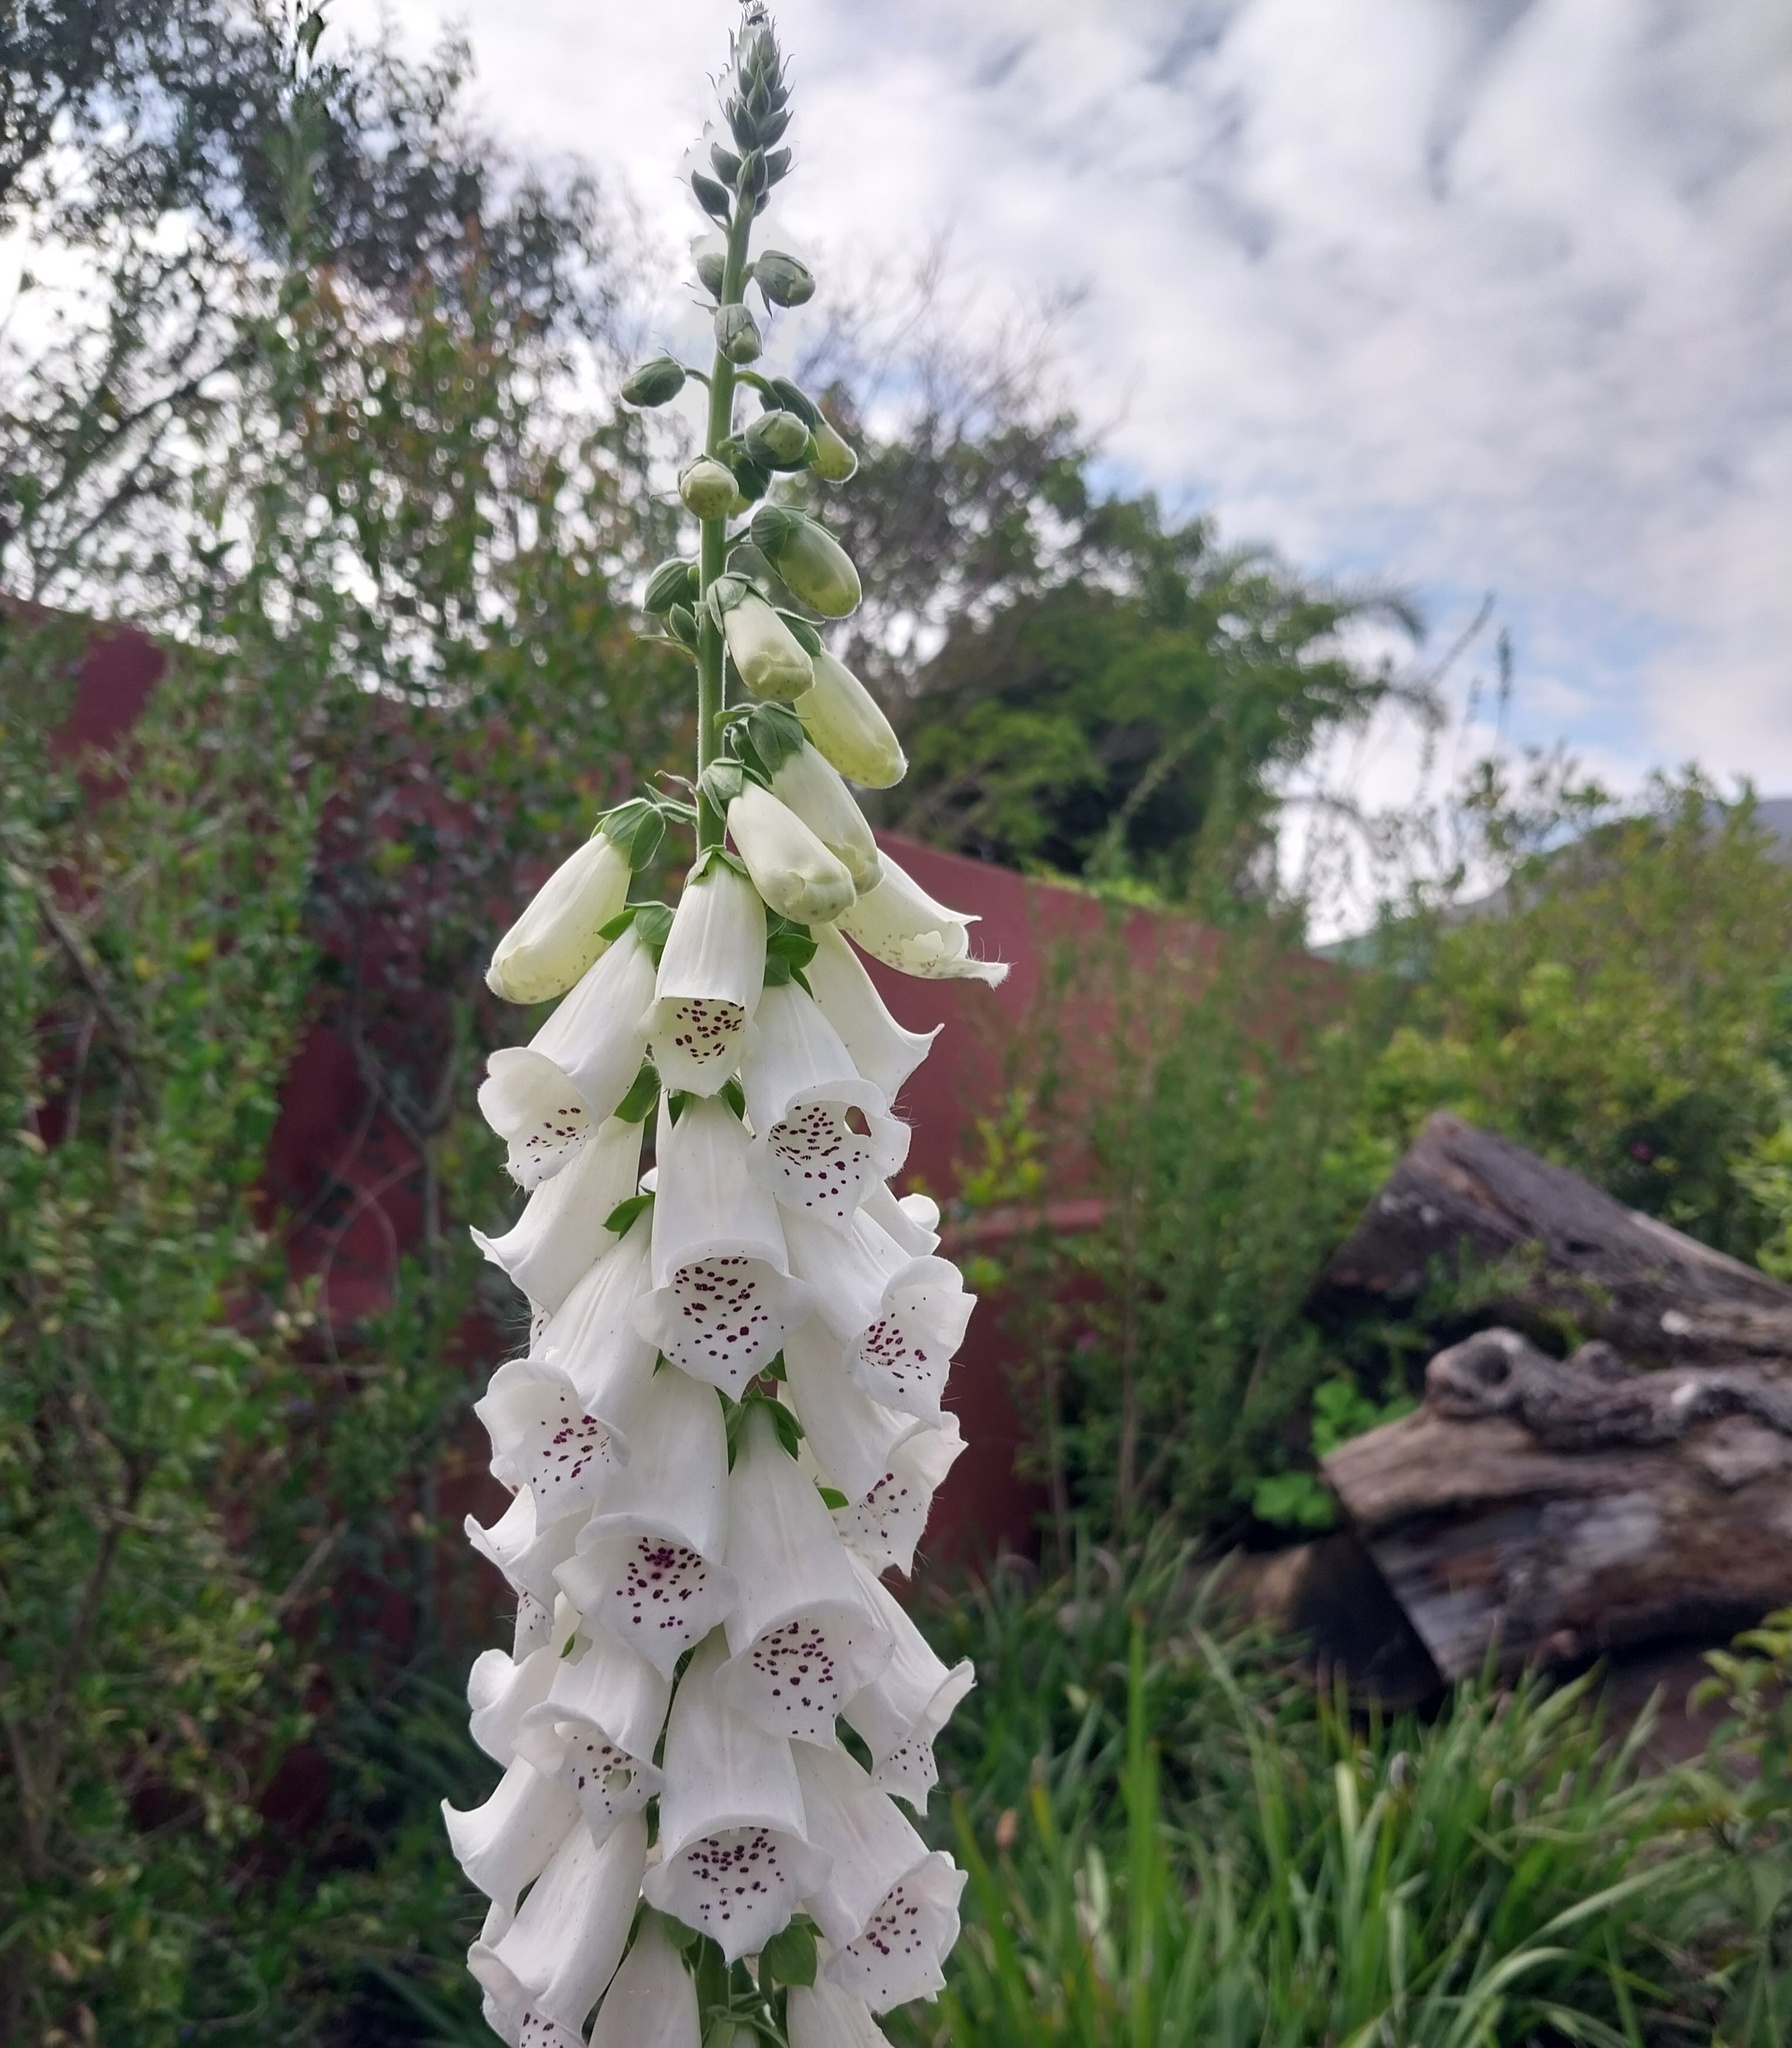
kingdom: Plantae
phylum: Tracheophyta
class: Magnoliopsida
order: Lamiales
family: Plantaginaceae
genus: Digitalis
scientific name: Digitalis purpurea
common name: Foxglove
